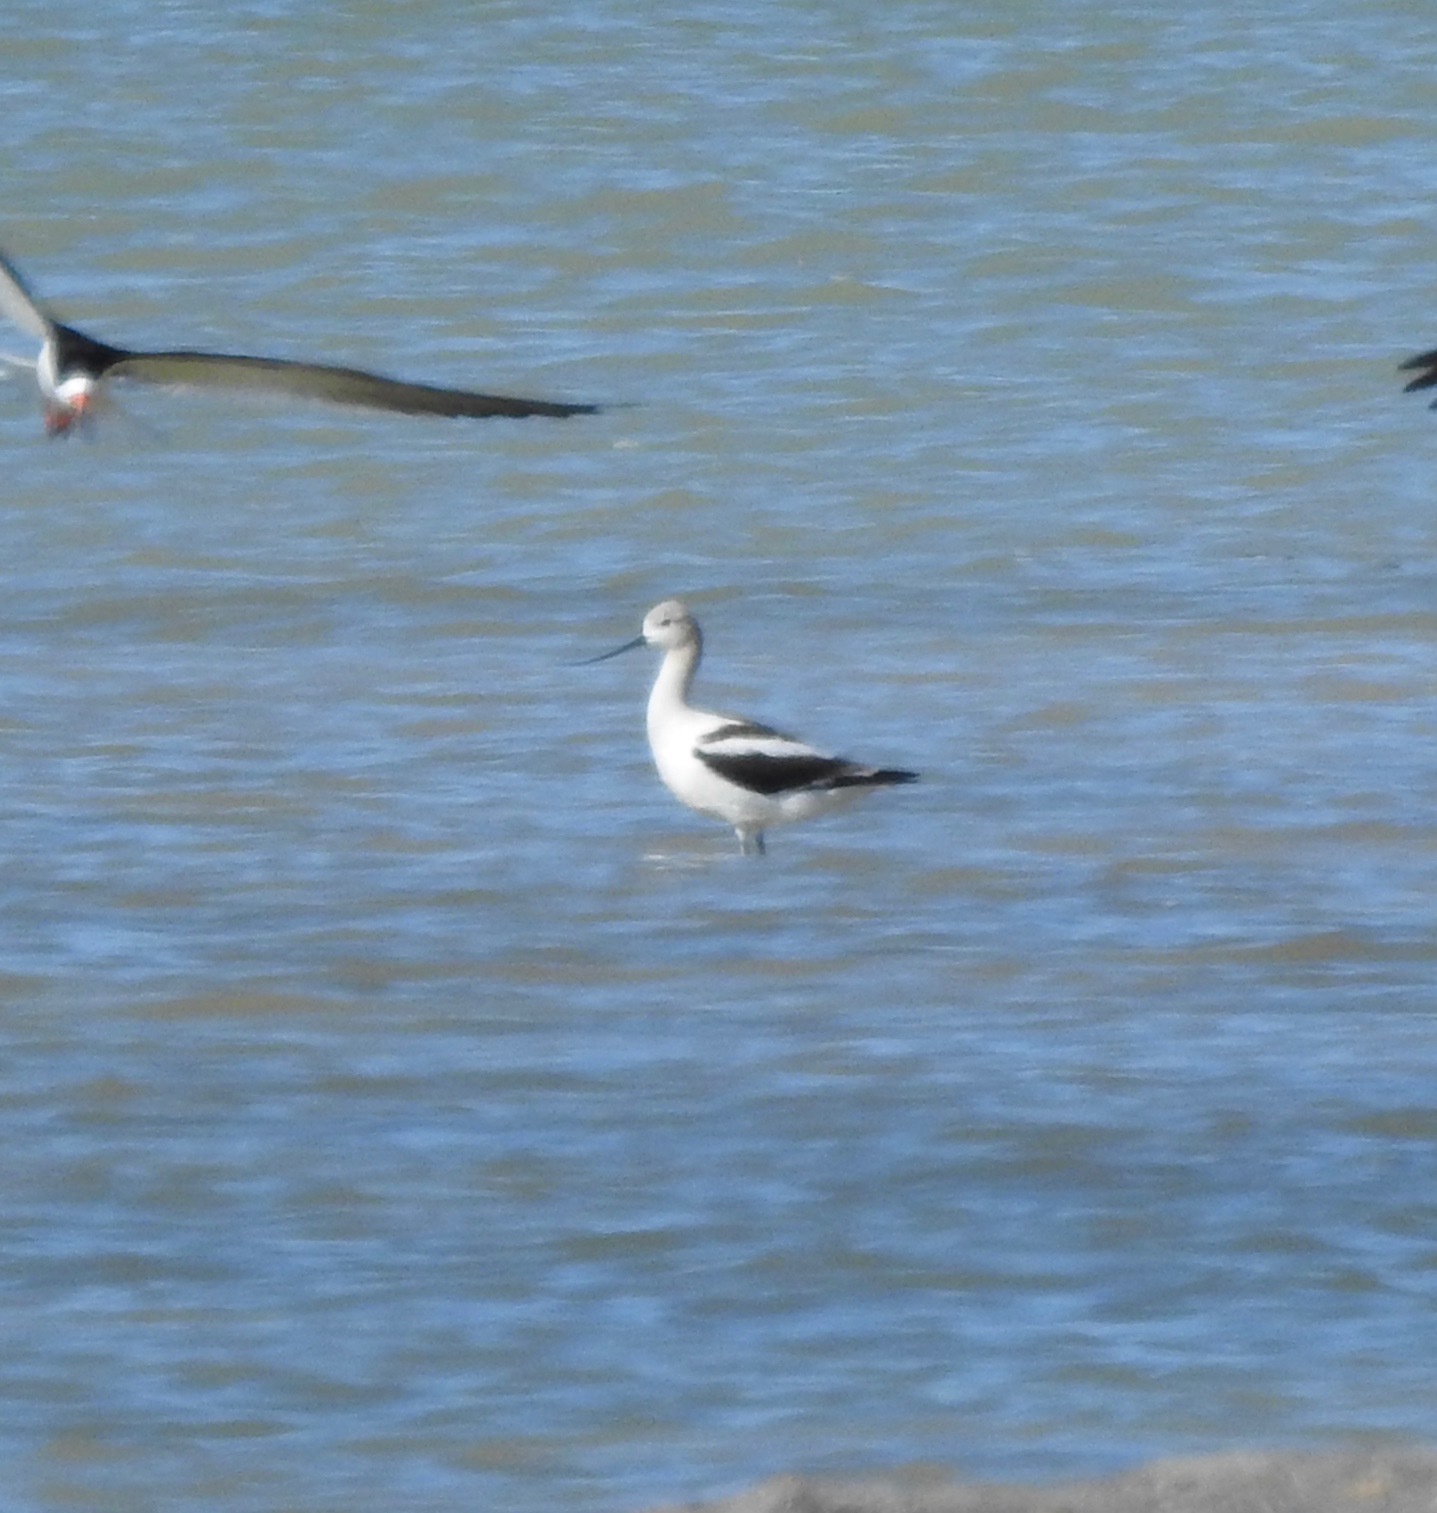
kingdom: Animalia
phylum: Chordata
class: Aves
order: Charadriiformes
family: Recurvirostridae
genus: Recurvirostra
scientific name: Recurvirostra americana
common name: American avocet
